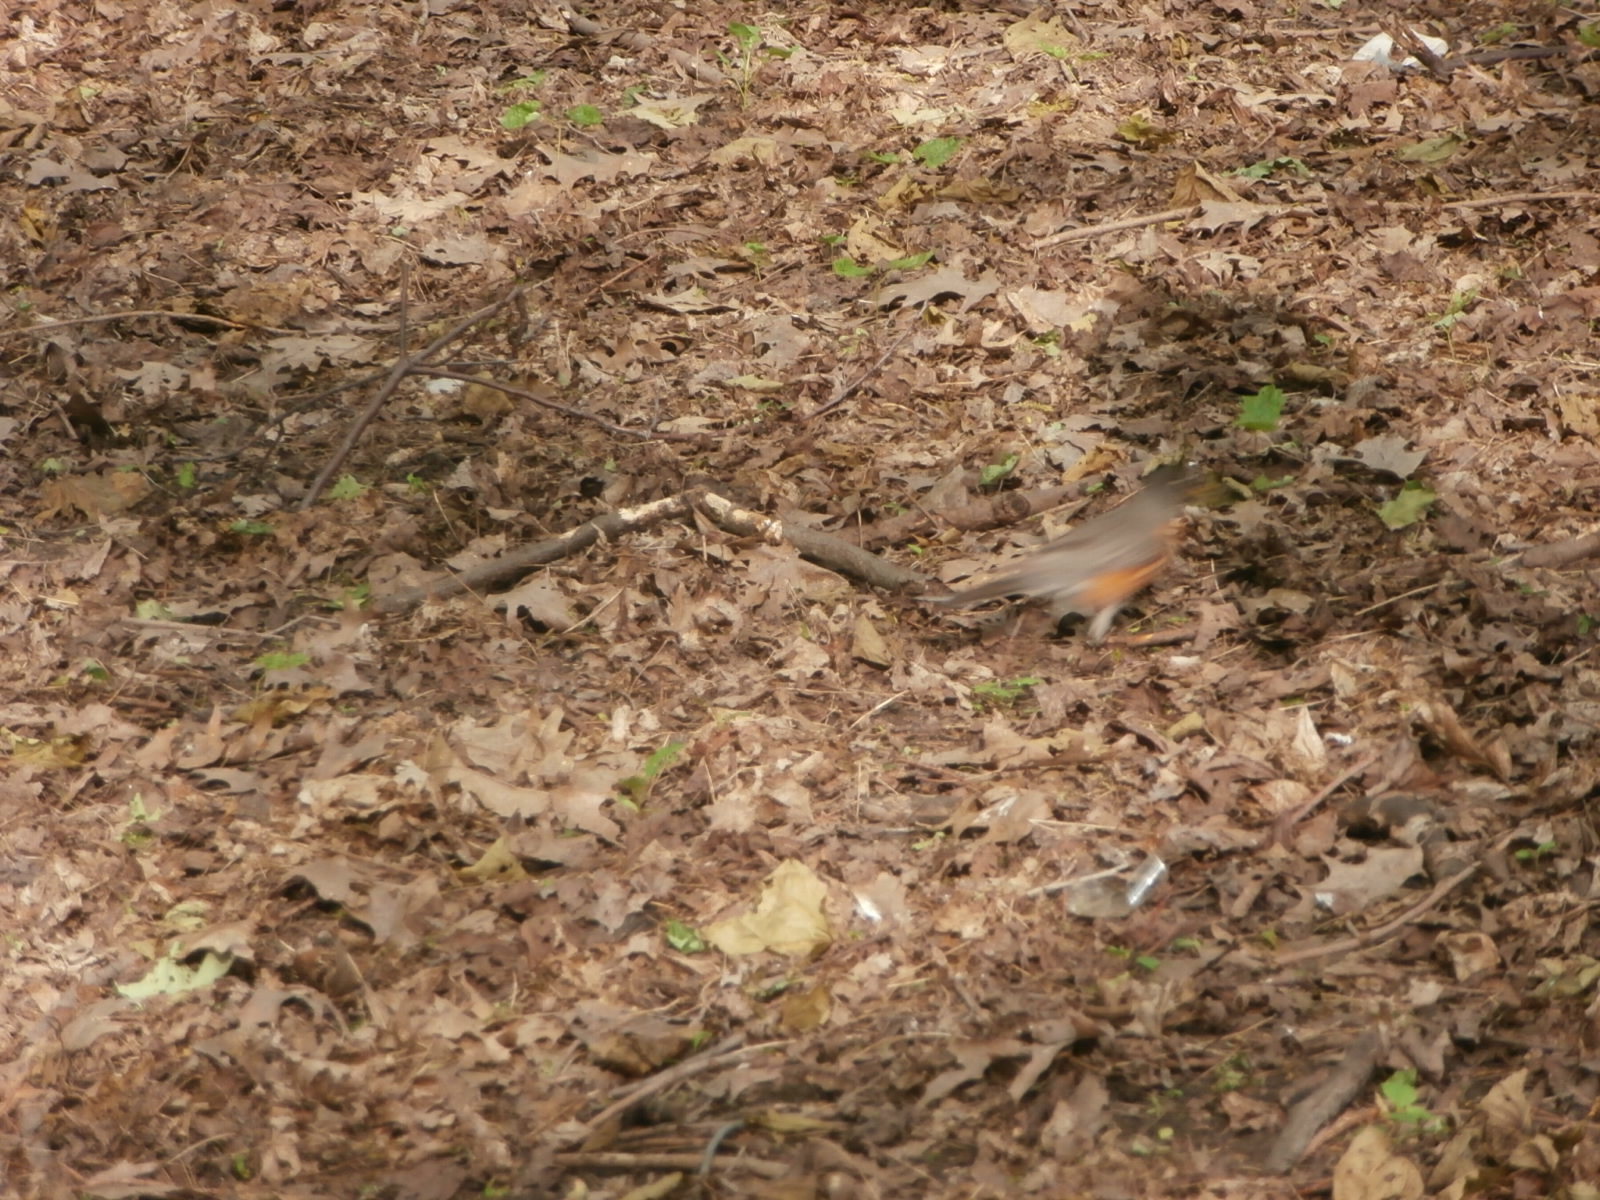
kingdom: Animalia
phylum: Chordata
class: Aves
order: Passeriformes
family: Turdidae
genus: Turdus
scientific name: Turdus migratorius
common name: American robin
